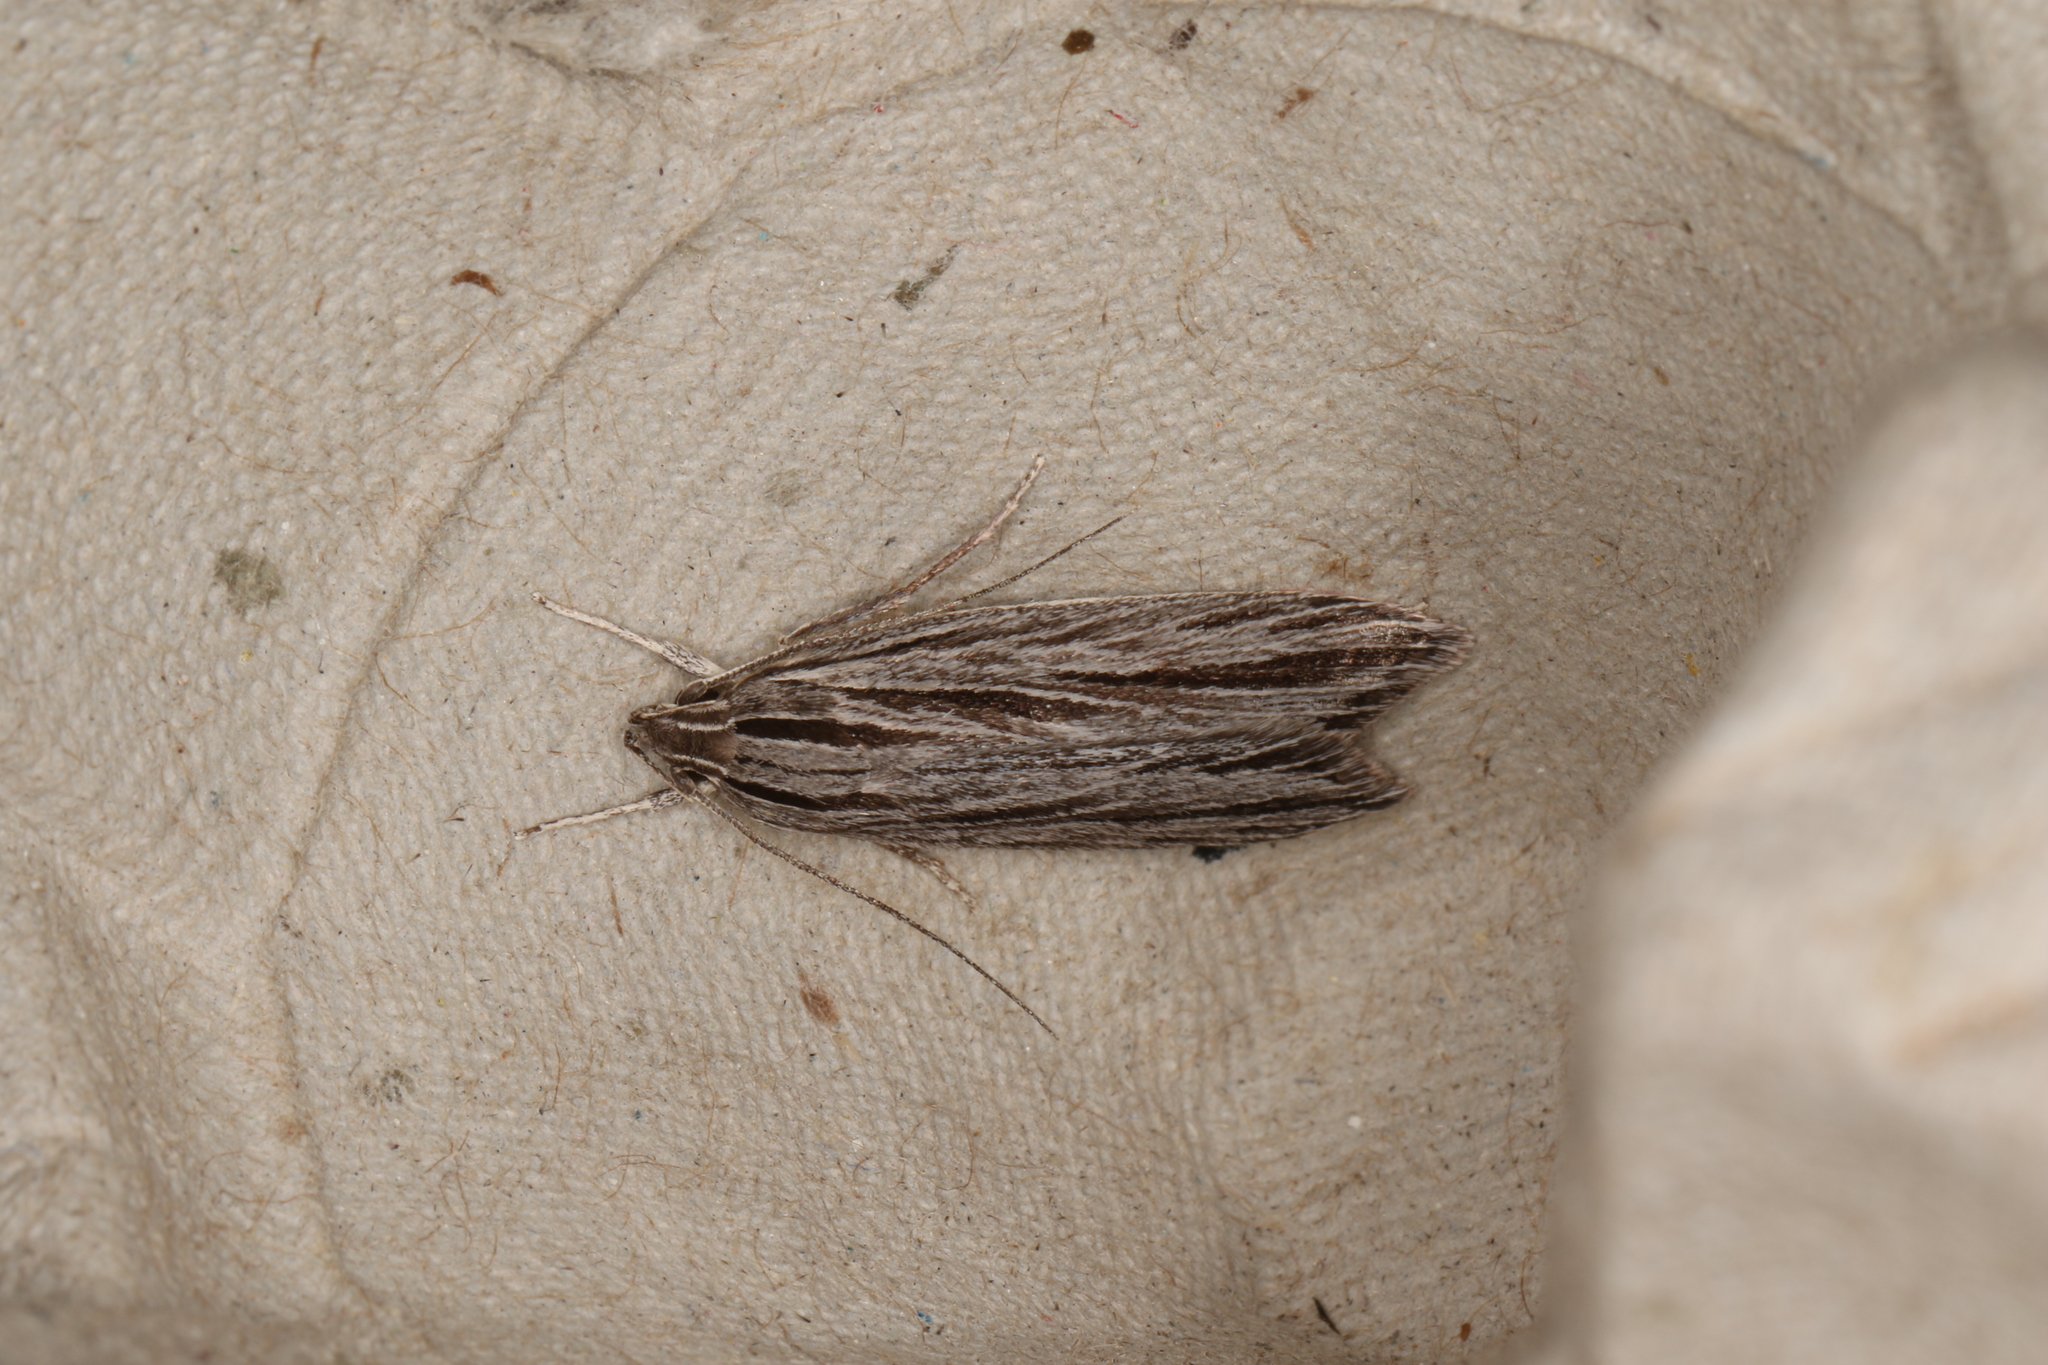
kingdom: Animalia
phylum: Arthropoda
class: Insecta
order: Lepidoptera
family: Xyloryctidae
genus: Leistarcha
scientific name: Leistarcha scitissimella
